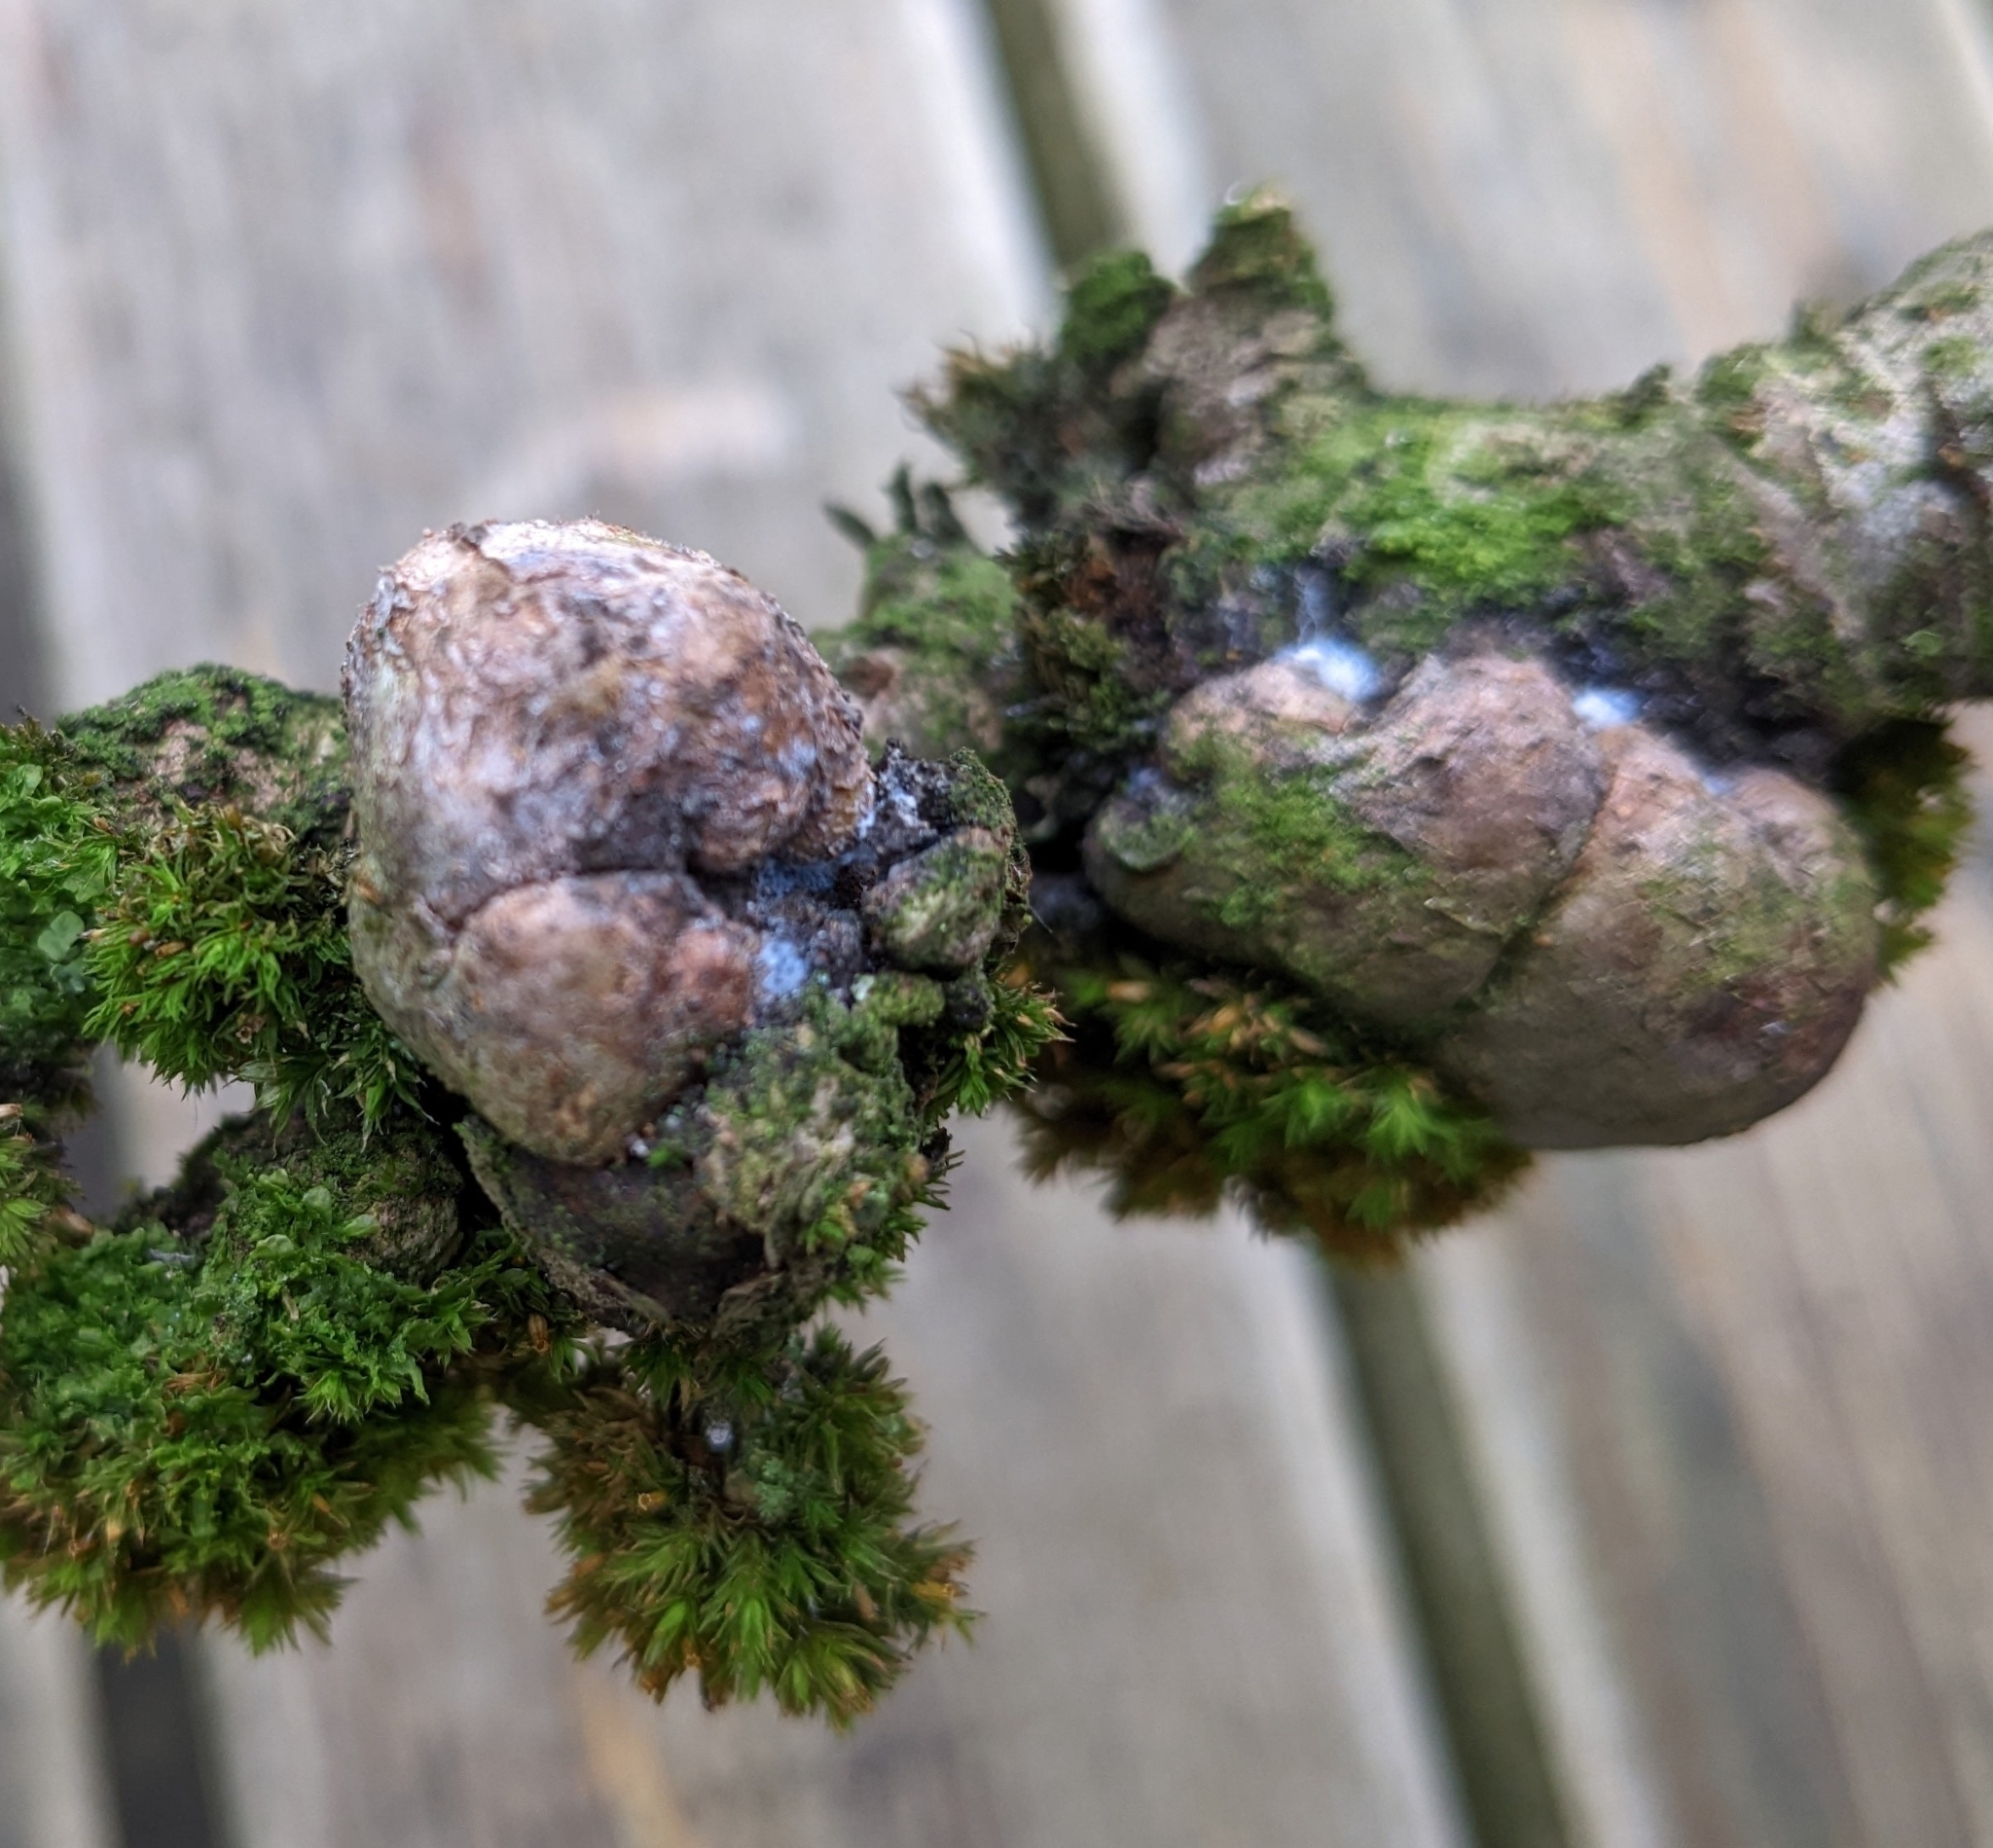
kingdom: Bacteria
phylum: Proteobacteria
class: Alphaproteobacteria
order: Rhizobiales
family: Rhizobiaceae
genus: Rhizobium
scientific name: Rhizobium Agrobacterium radiobacter
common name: Bacterial crown gall
